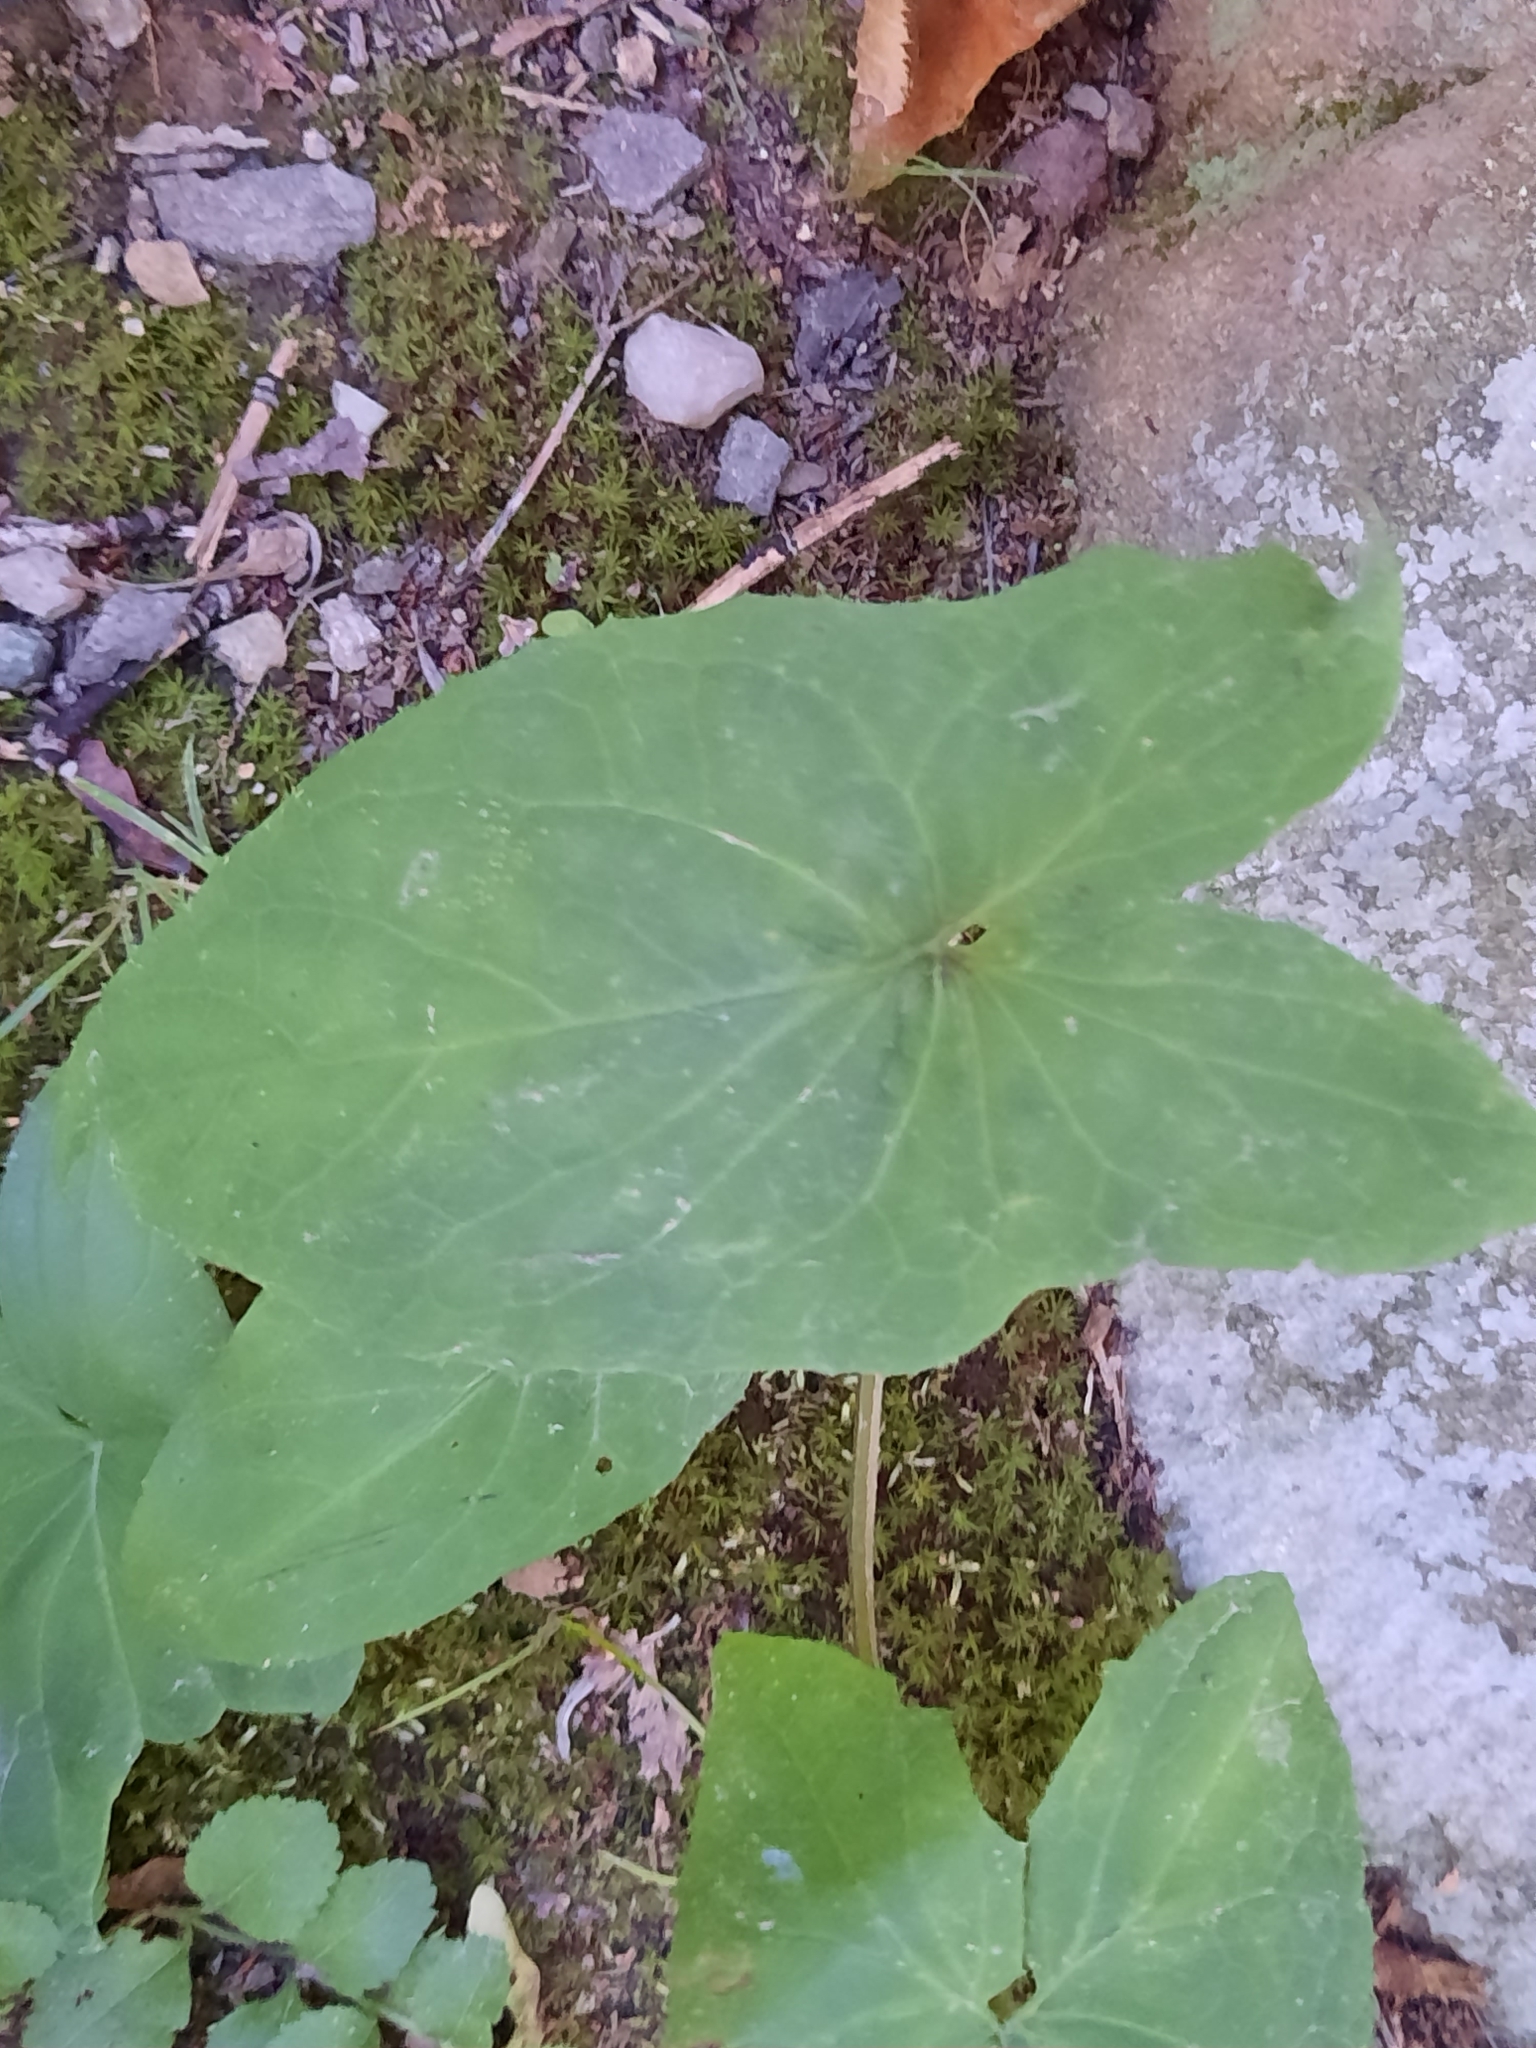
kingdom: Plantae
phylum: Tracheophyta
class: Magnoliopsida
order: Asterales
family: Asteraceae
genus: Nabalus
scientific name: Nabalus
